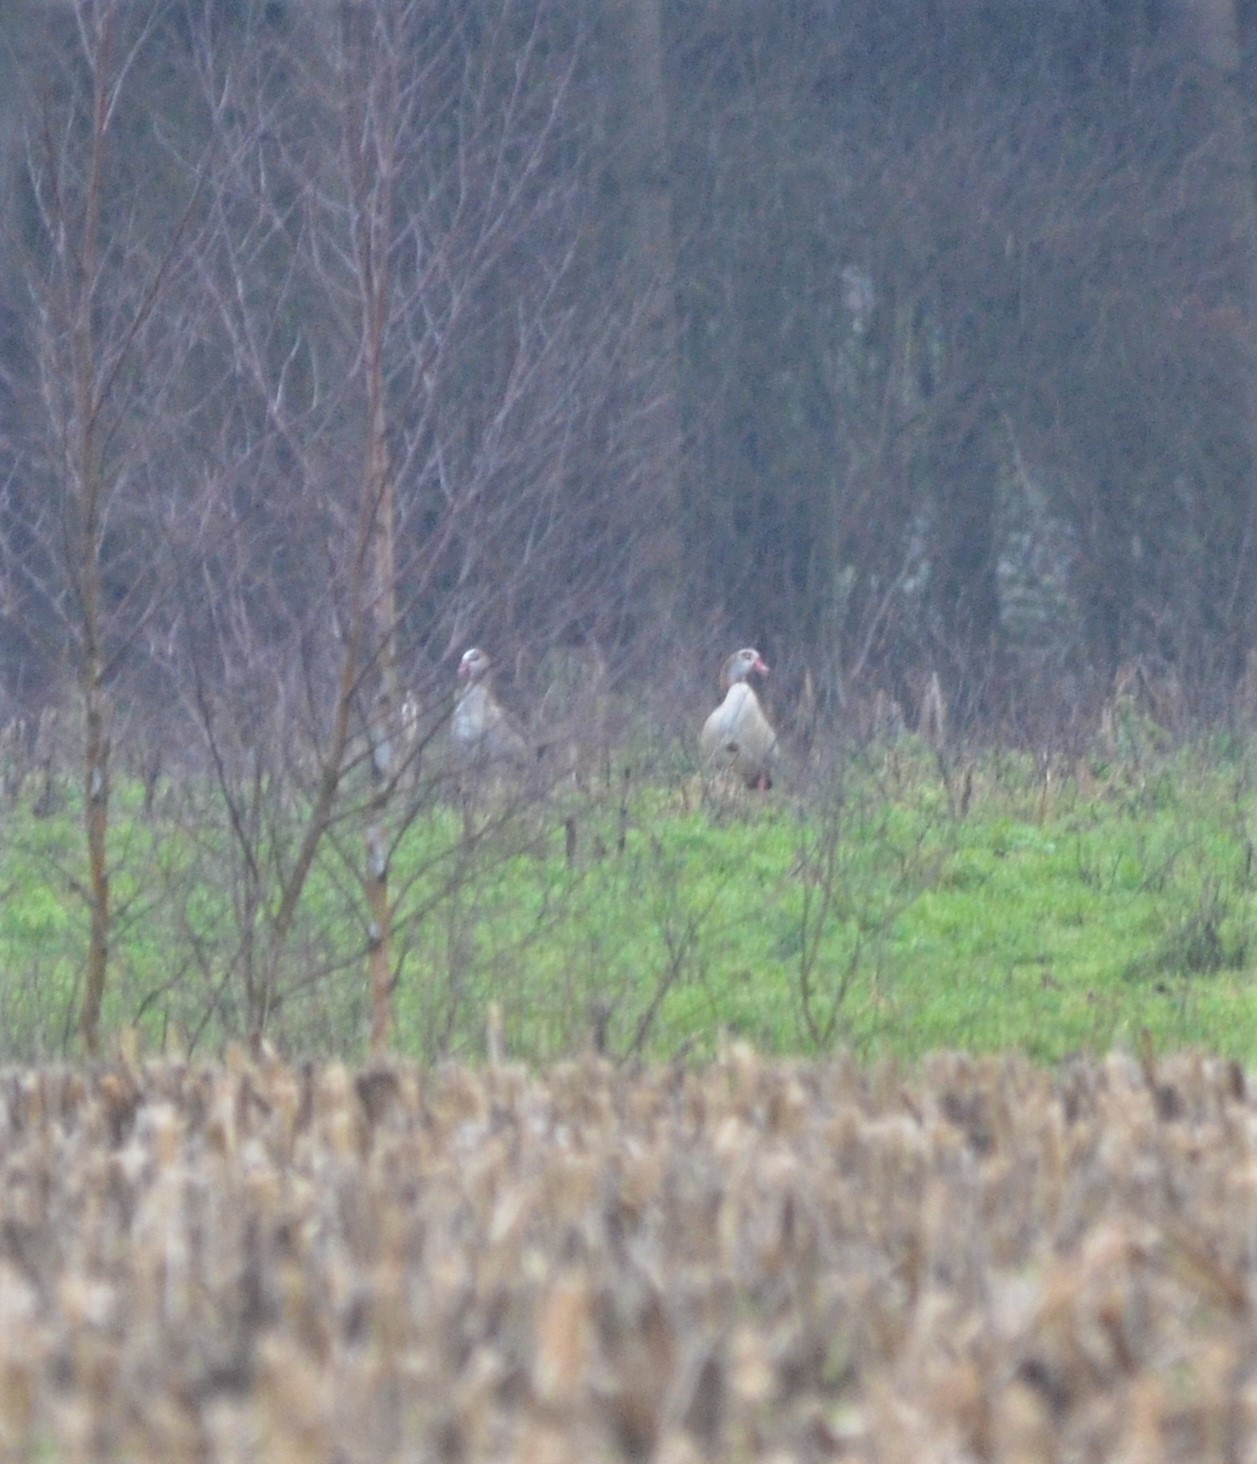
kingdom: Animalia
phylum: Chordata
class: Aves
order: Anseriformes
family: Anatidae
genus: Alopochen
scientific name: Alopochen aegyptiaca
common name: Egyptian goose
